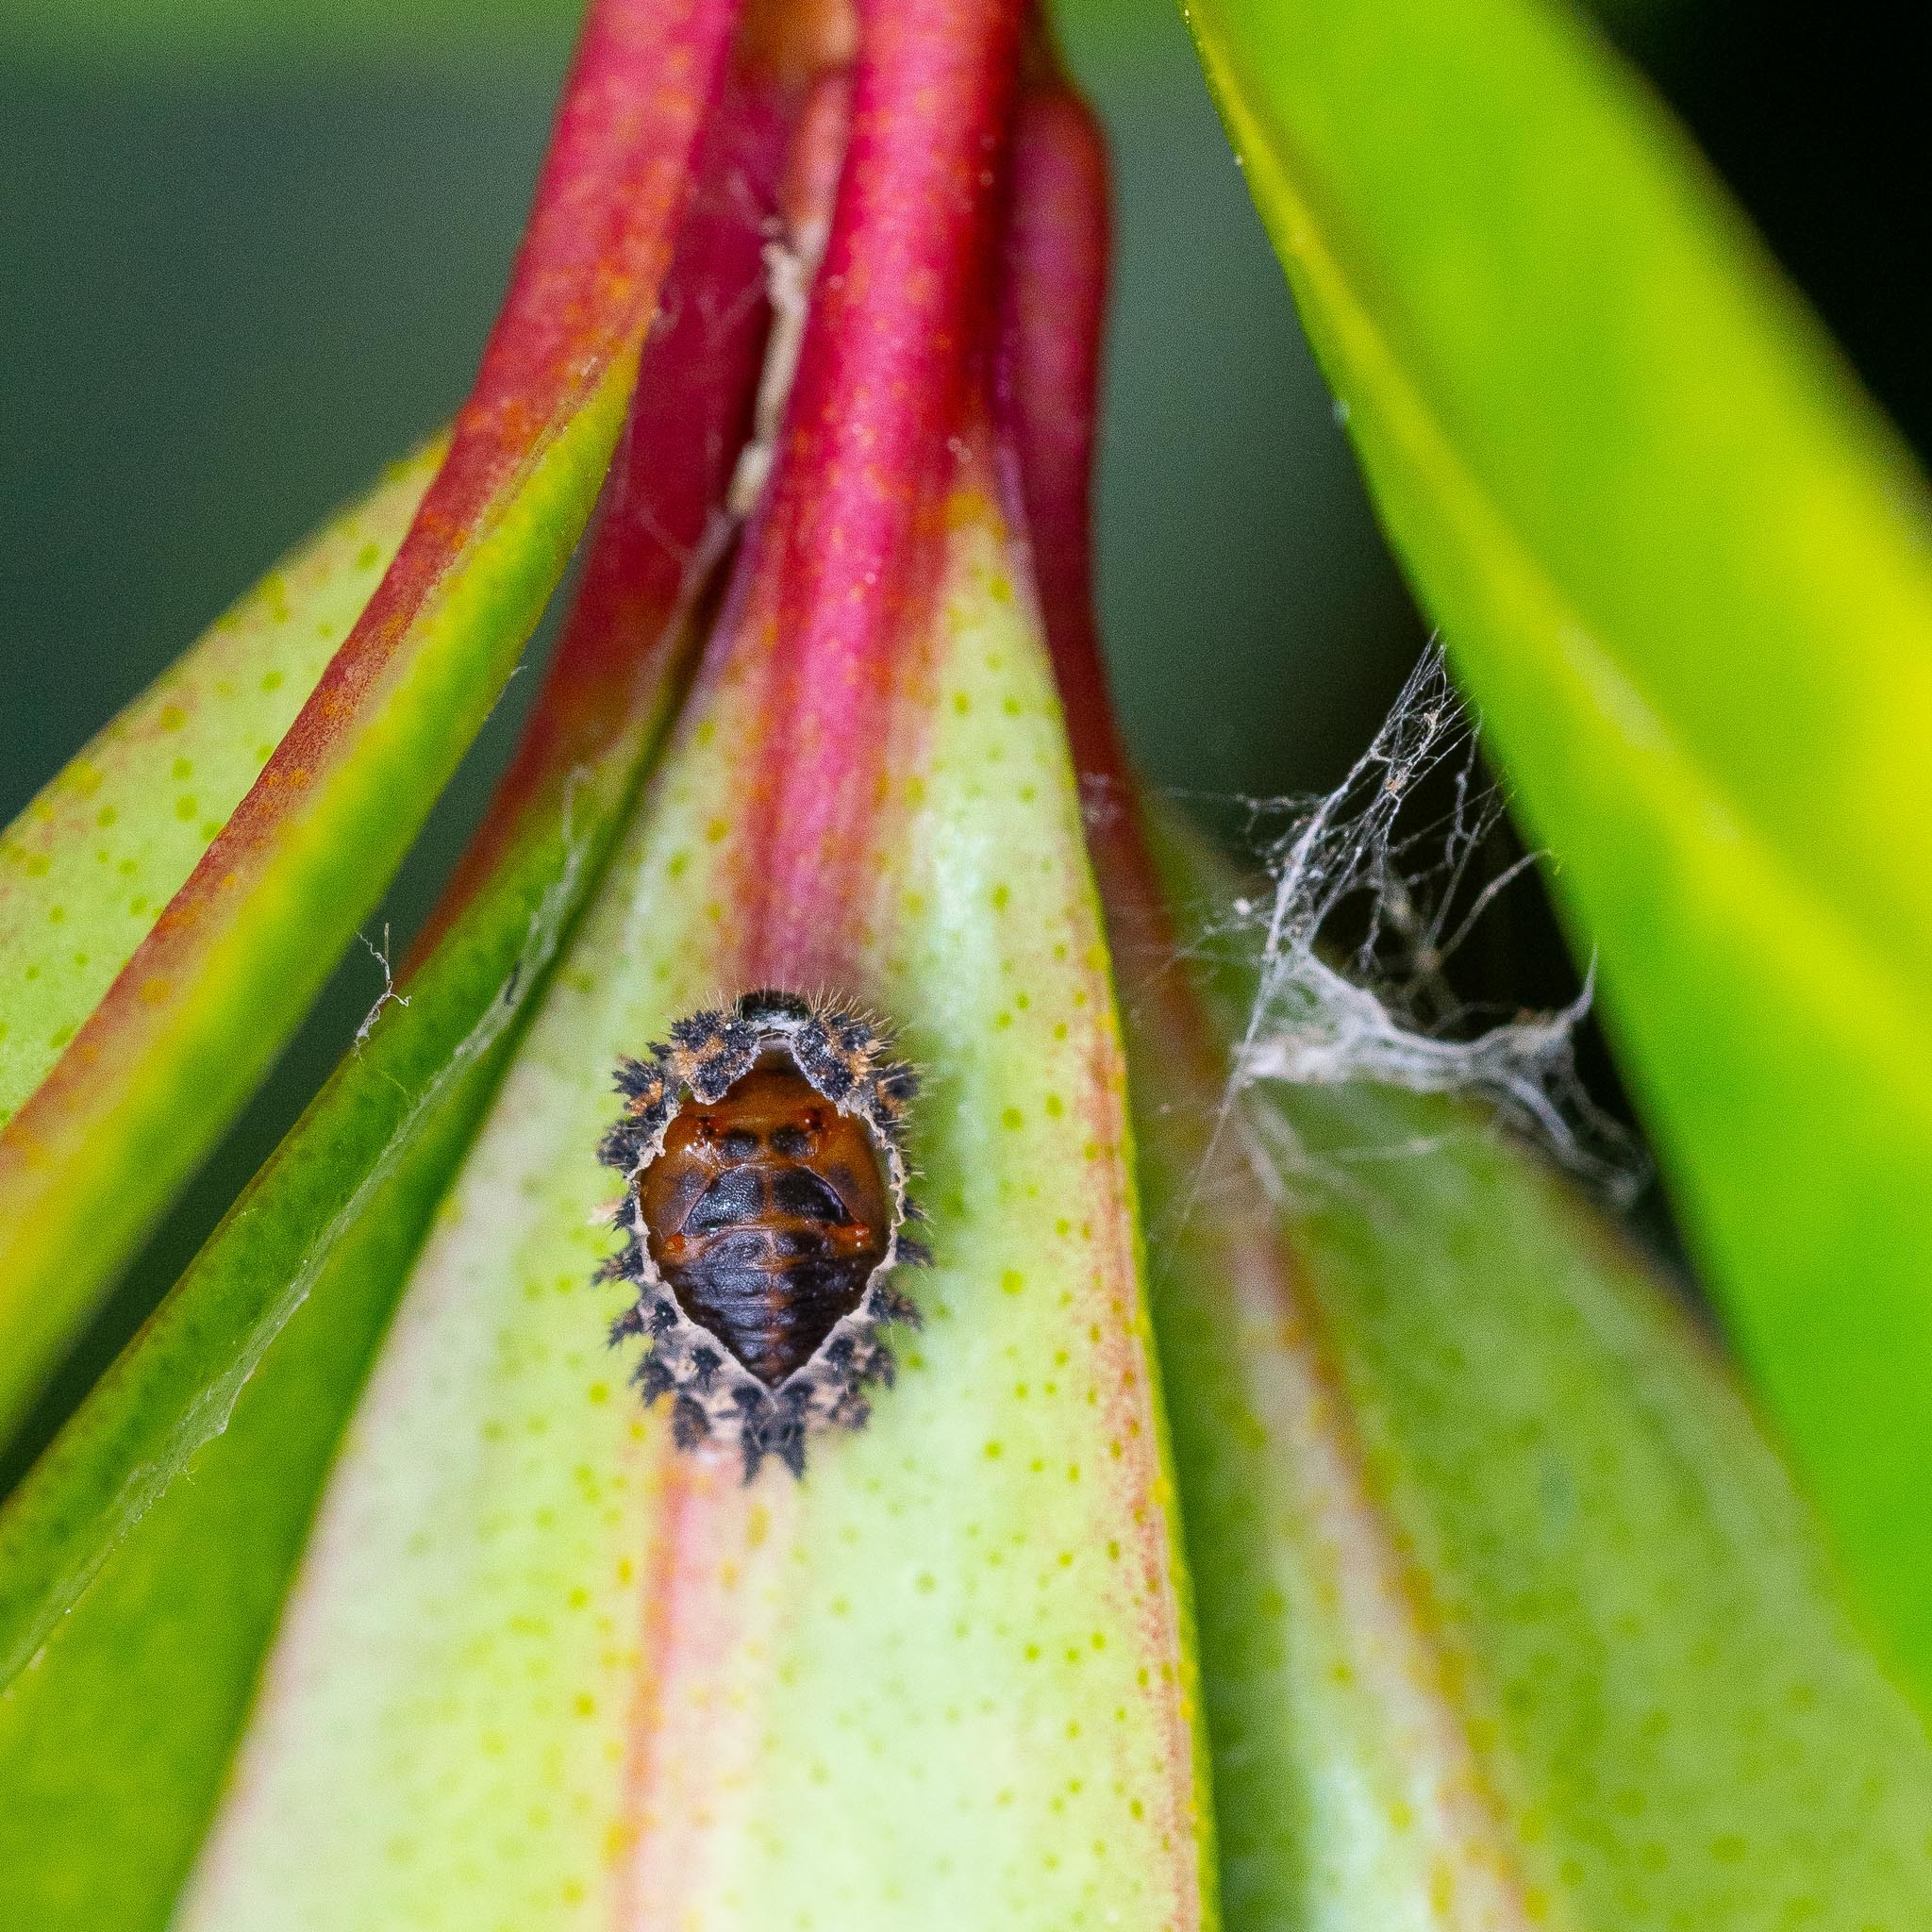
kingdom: Animalia
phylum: Arthropoda
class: Insecta
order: Coleoptera
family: Coccinellidae
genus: Brumus
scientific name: Brumus quadripustulatus
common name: Ladybird beetle
